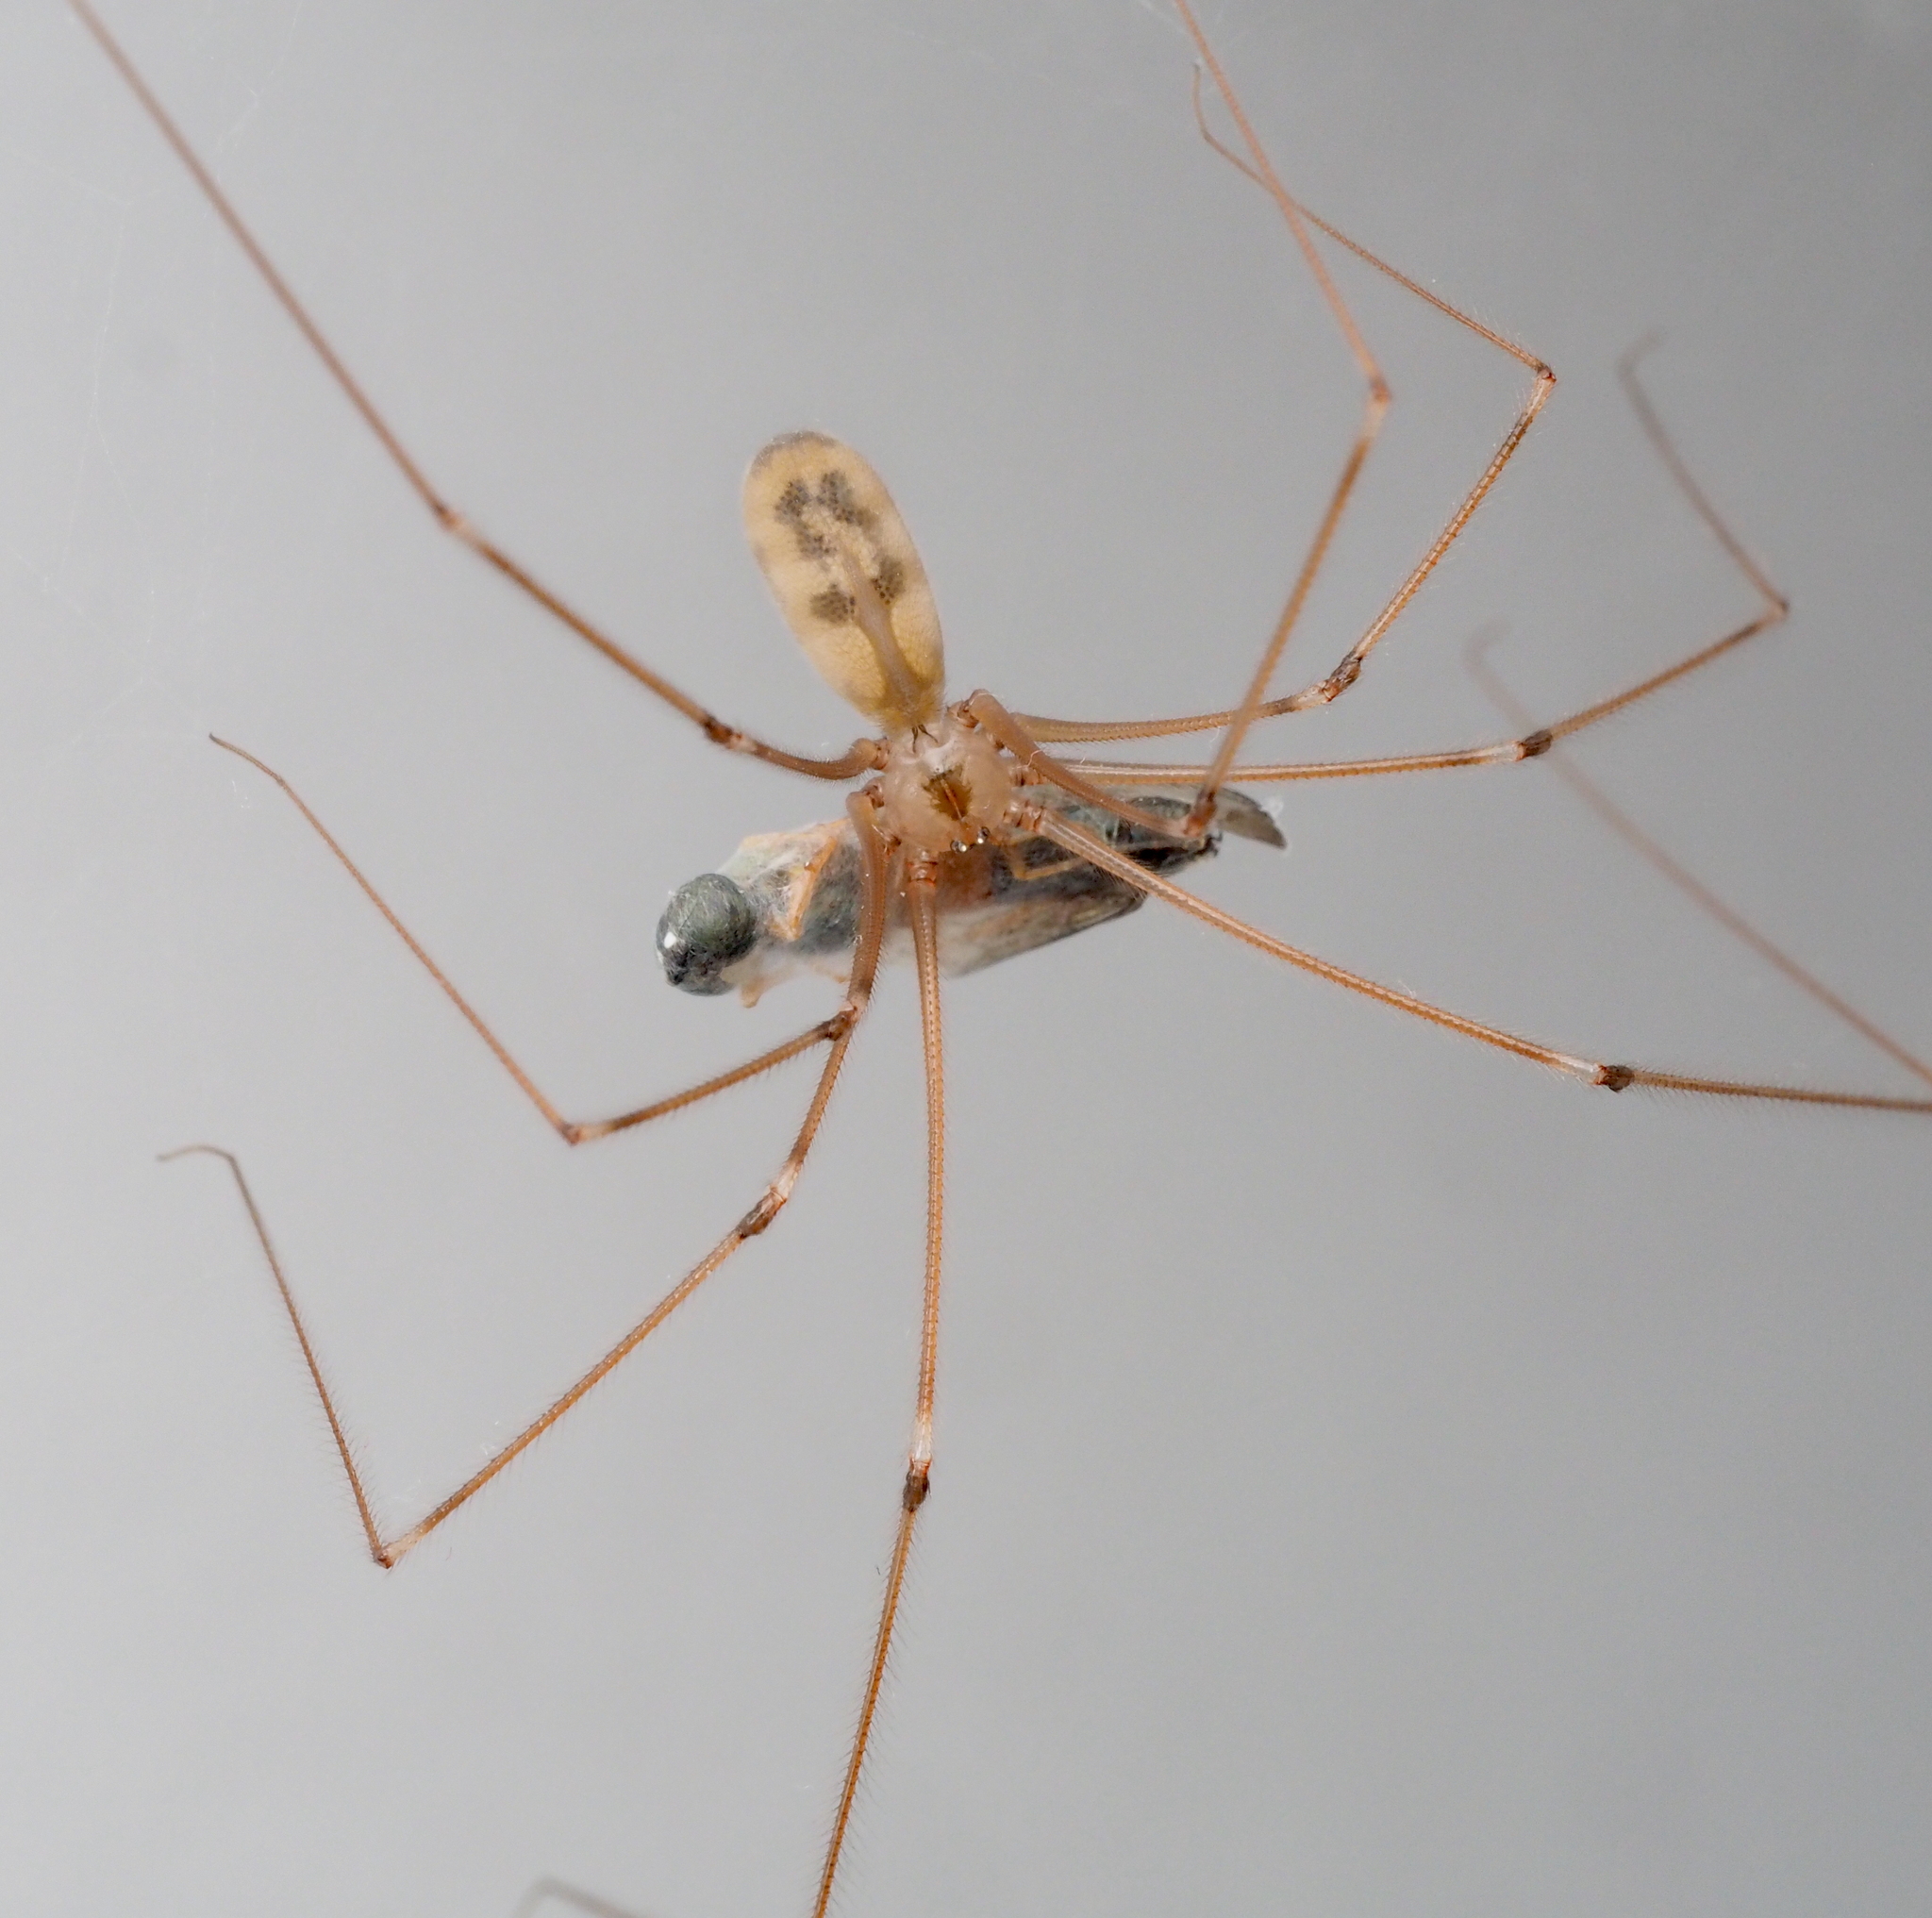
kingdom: Animalia
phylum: Arthropoda
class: Arachnida
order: Araneae
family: Pholcidae
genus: Pholcus
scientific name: Pholcus phalangioides
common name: Longbodied cellar spider
